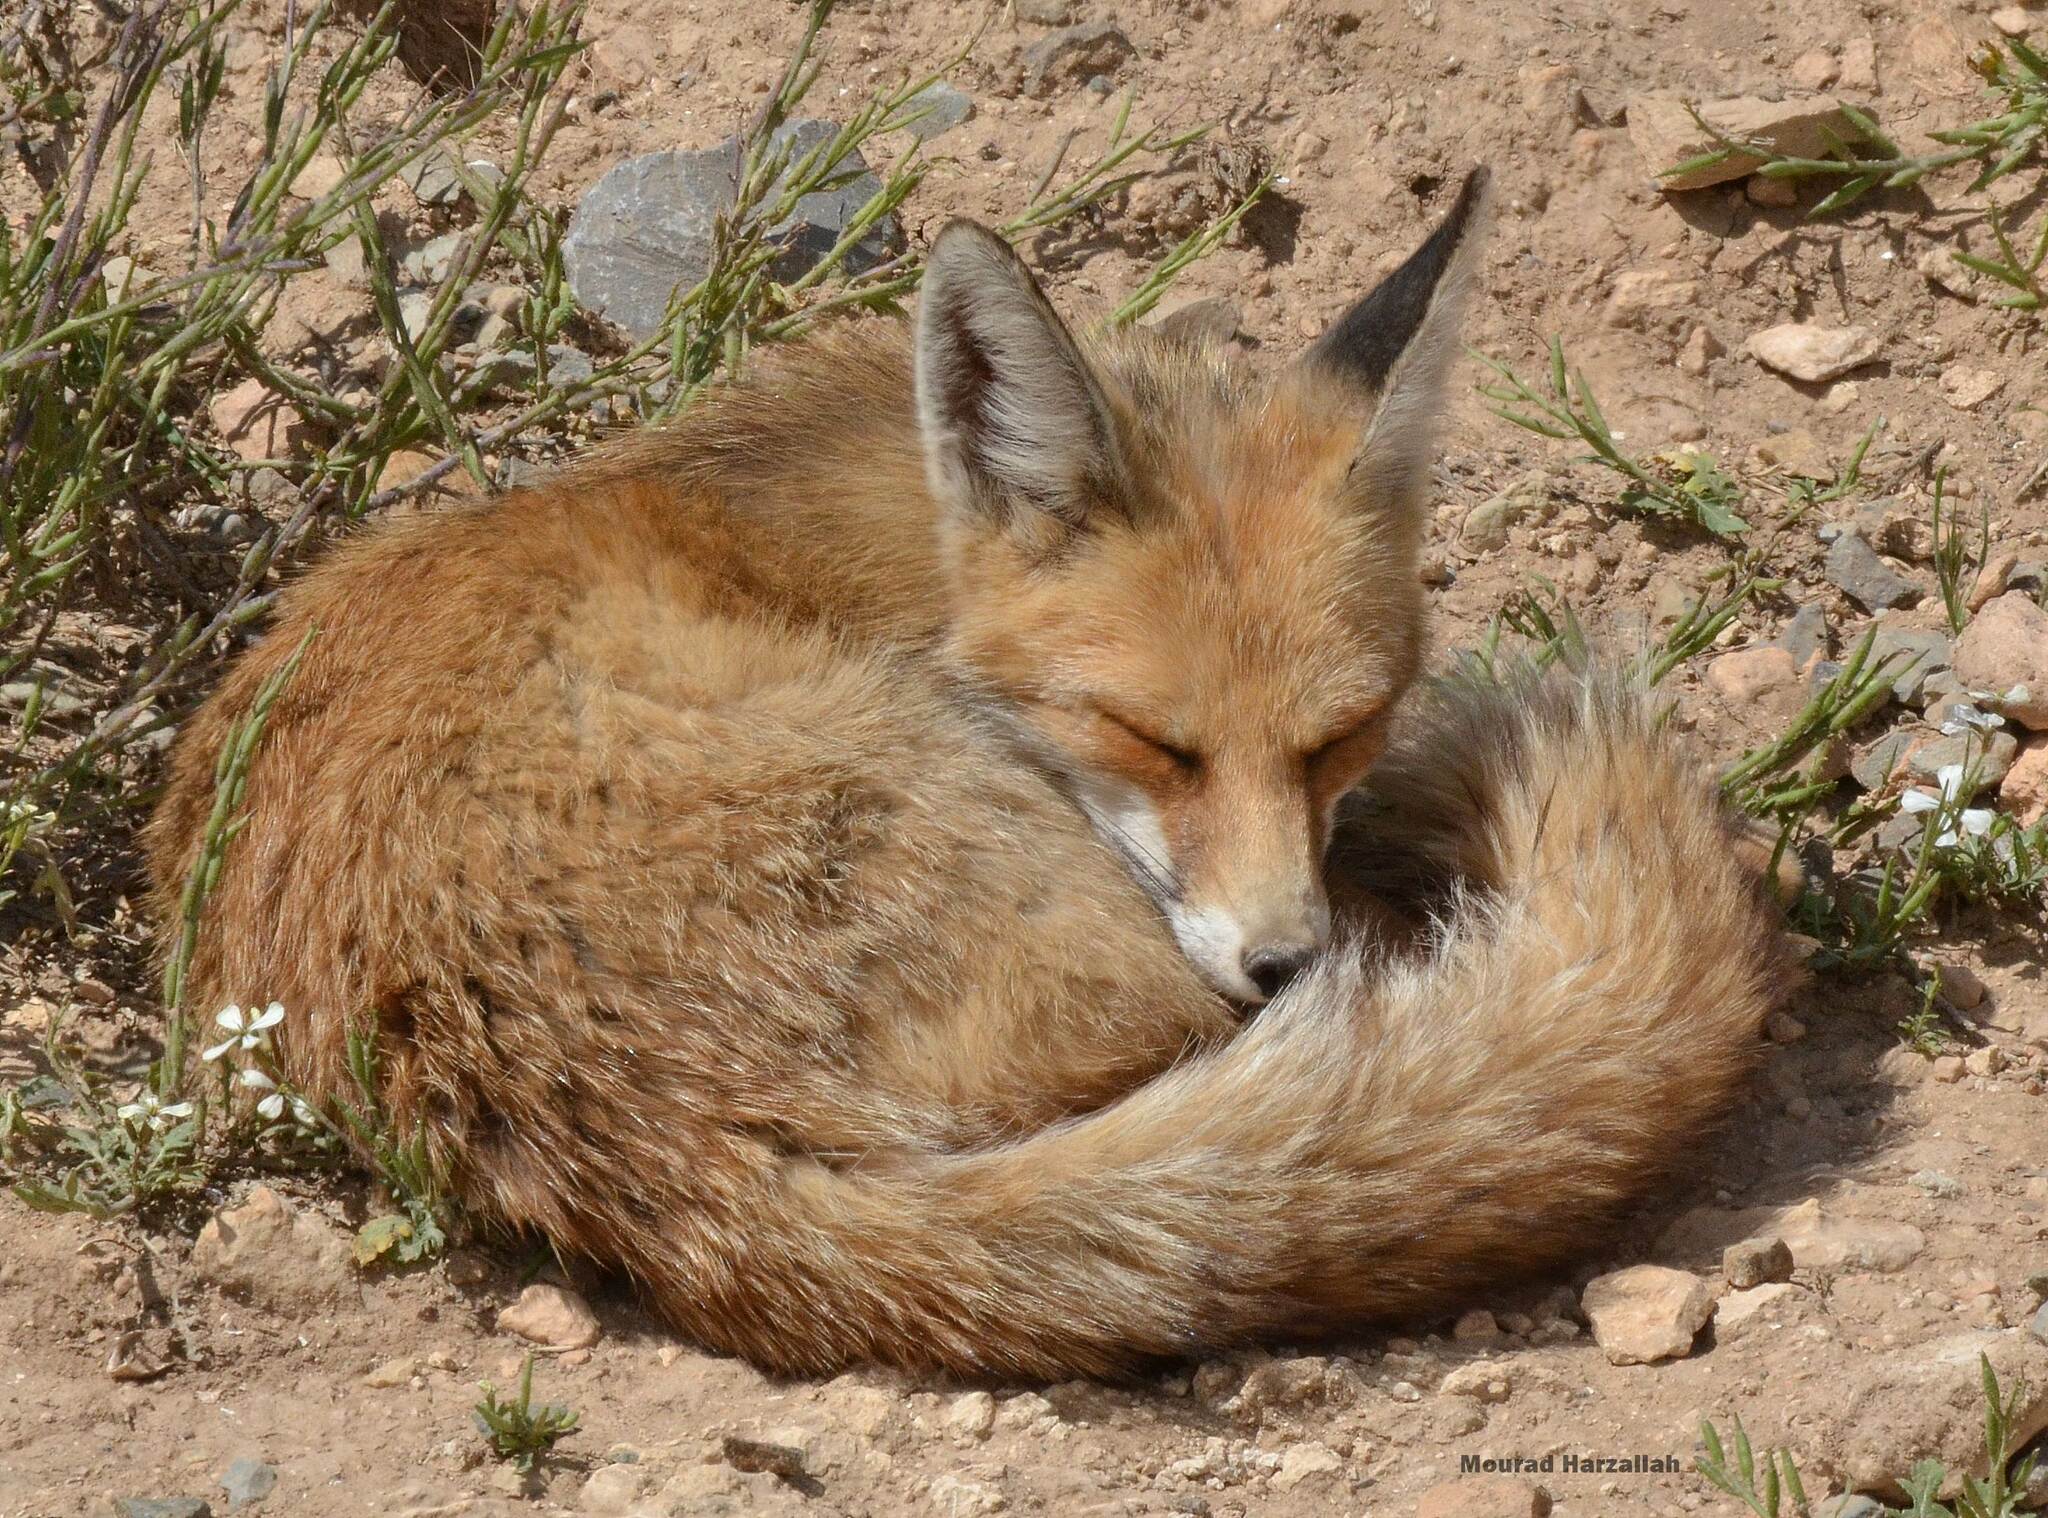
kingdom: Animalia
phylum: Chordata
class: Mammalia
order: Carnivora
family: Canidae
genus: Vulpes
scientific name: Vulpes vulpes
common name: Red fox
